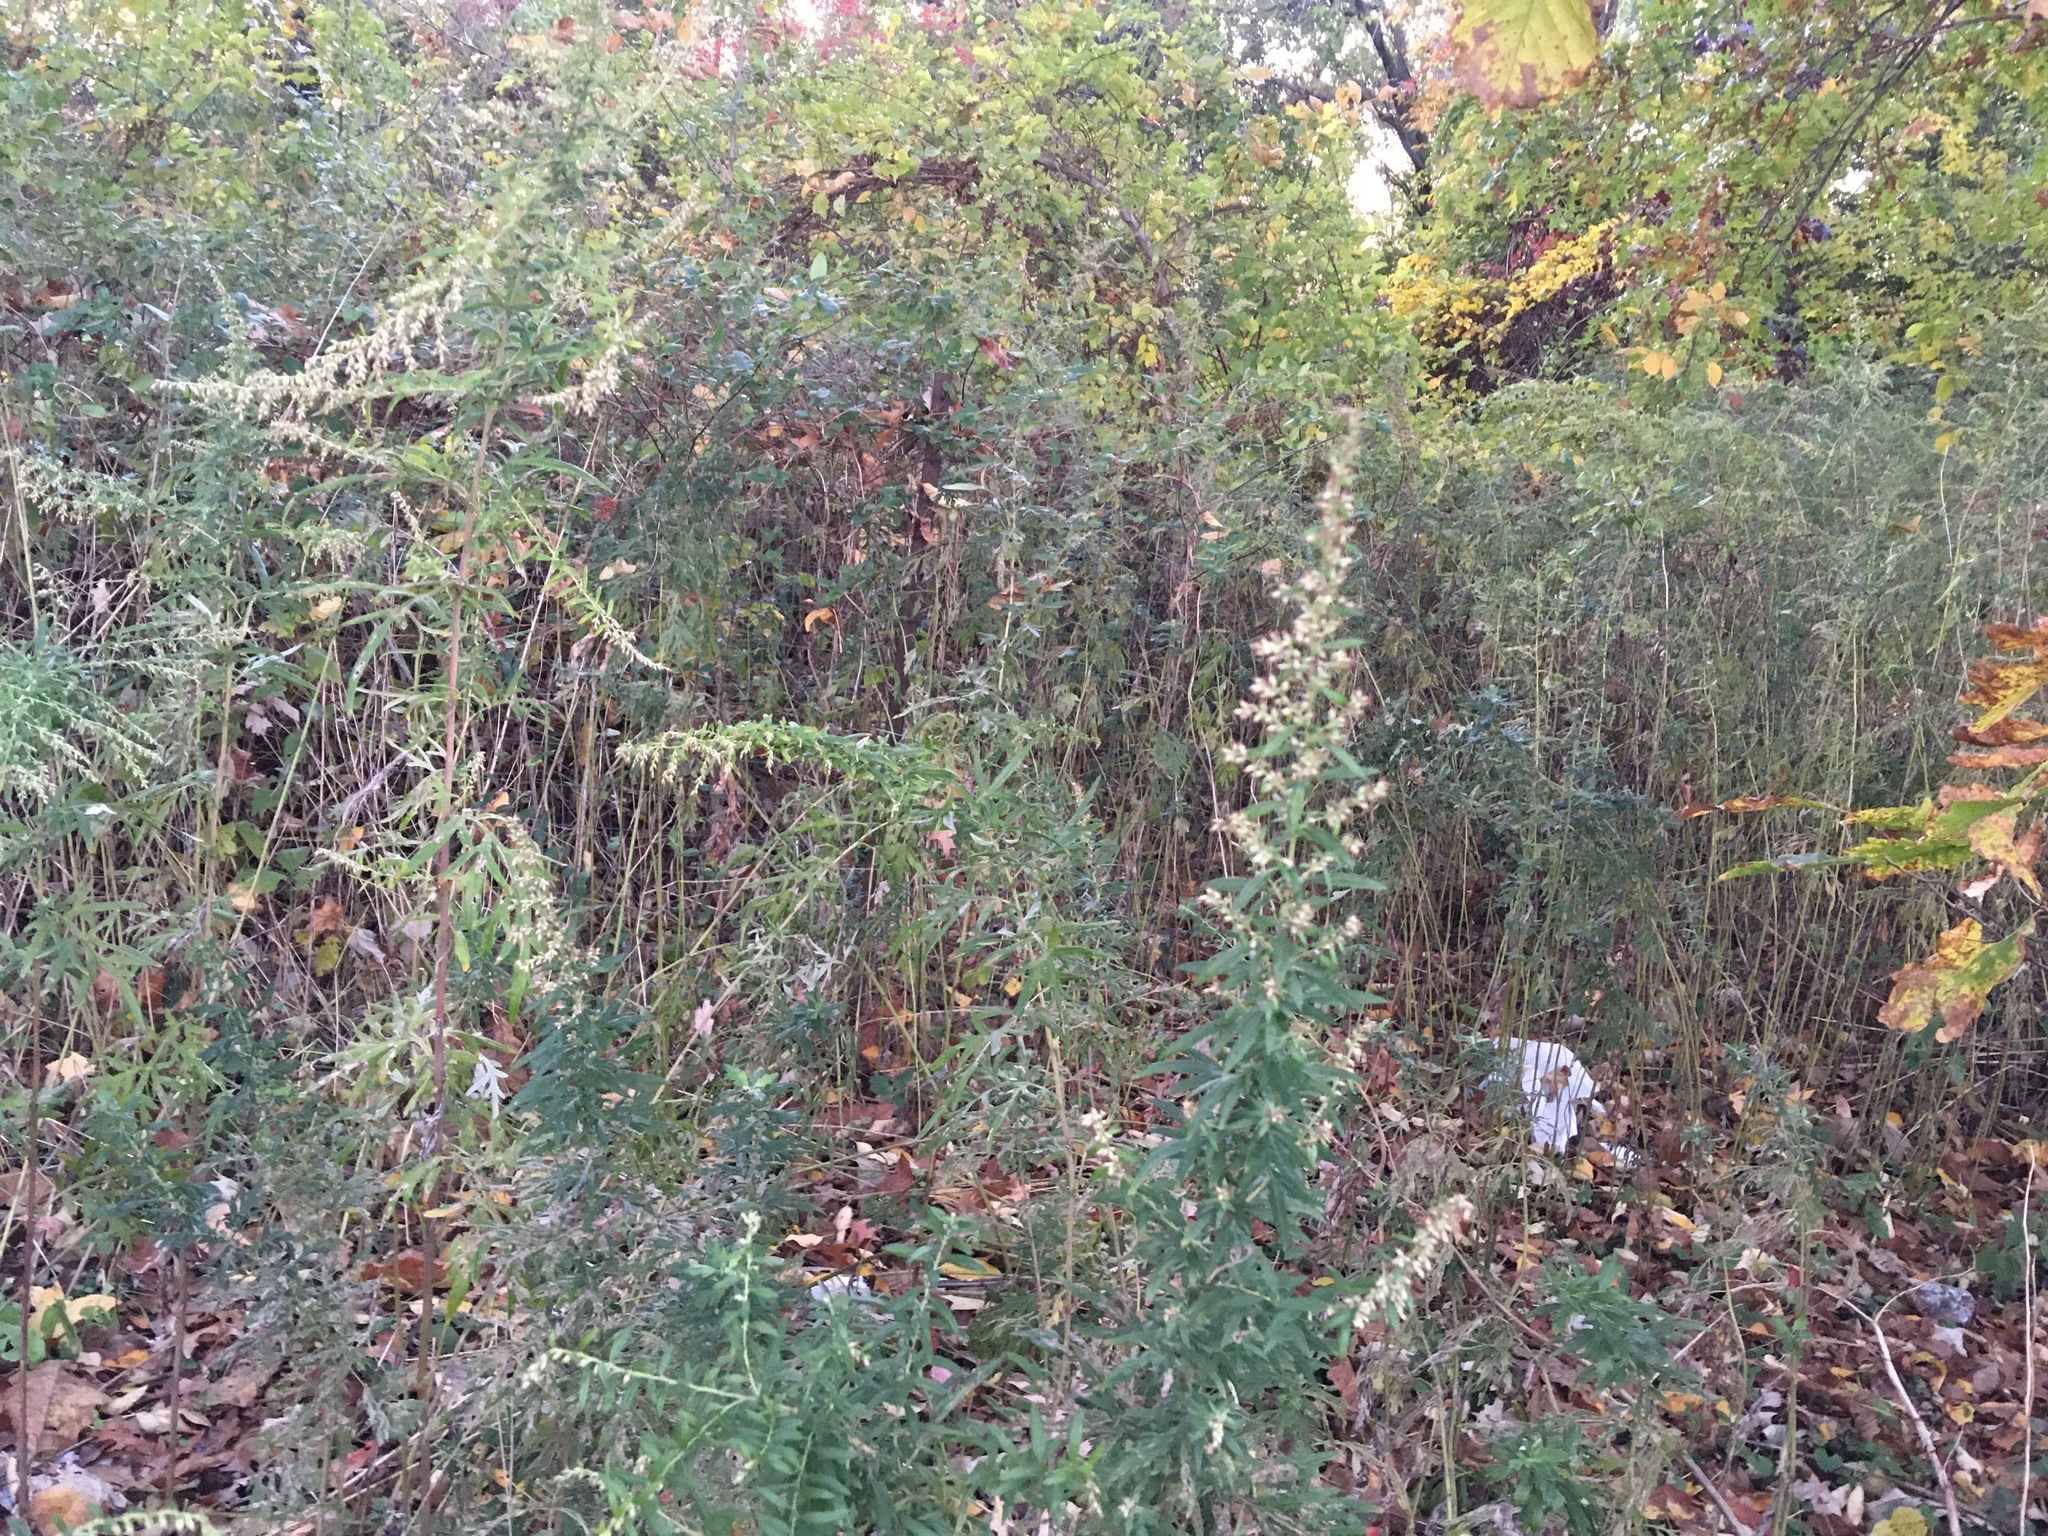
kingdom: Plantae
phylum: Tracheophyta
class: Magnoliopsida
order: Asterales
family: Asteraceae
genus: Artemisia
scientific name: Artemisia vulgaris
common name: Mugwort
